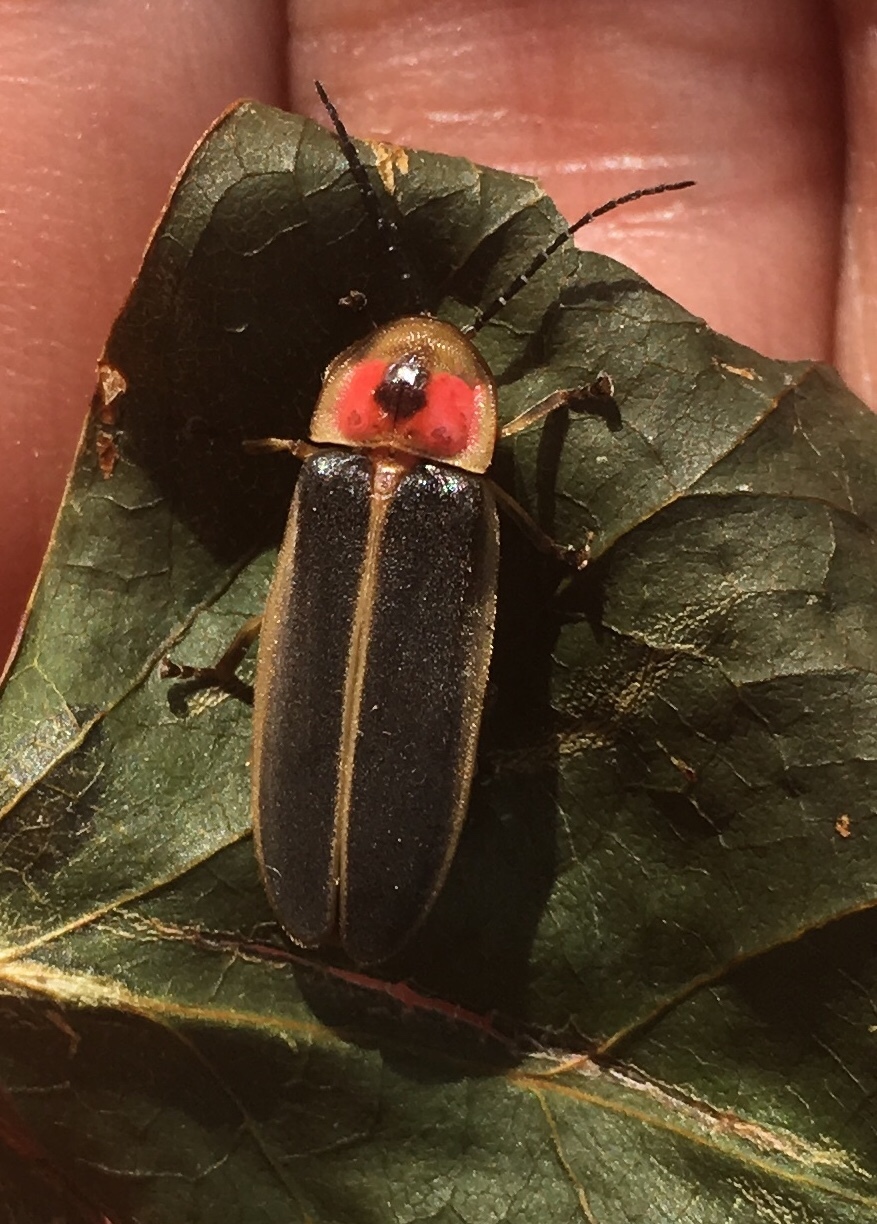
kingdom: Animalia
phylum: Arthropoda
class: Insecta
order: Coleoptera
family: Lampyridae
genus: Photinus
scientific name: Photinus pyralis
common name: Big dipper firefly
